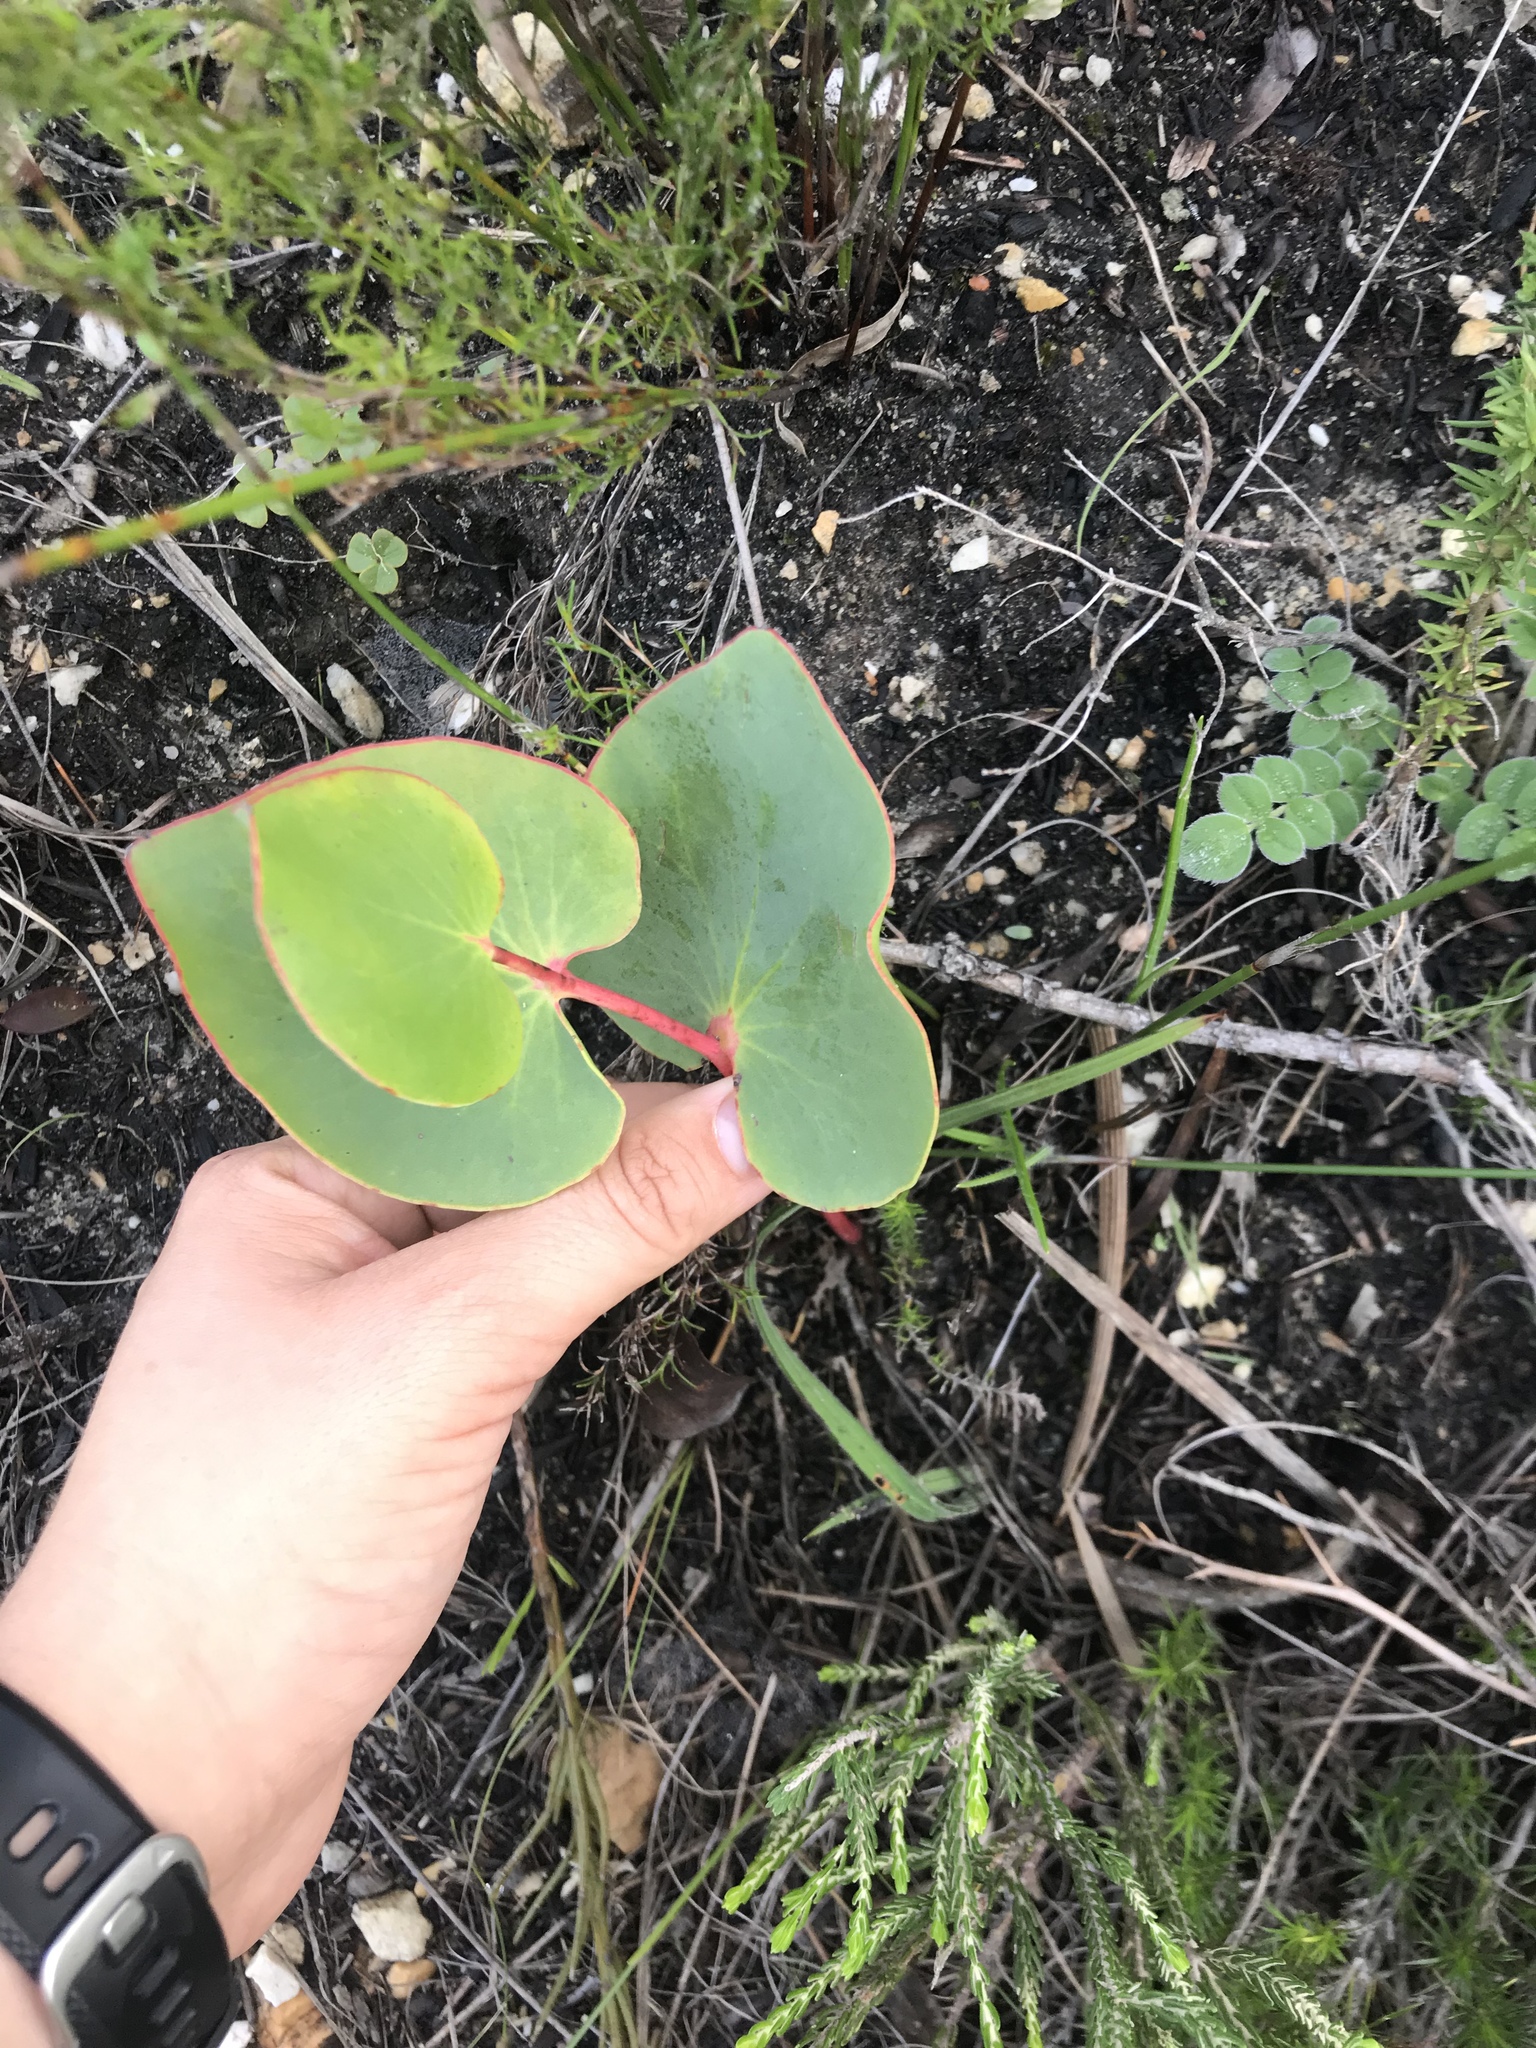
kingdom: Plantae
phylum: Tracheophyta
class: Magnoliopsida
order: Proteales
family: Proteaceae
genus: Protea
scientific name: Protea cordata
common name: Heart-leaf sugarbush
